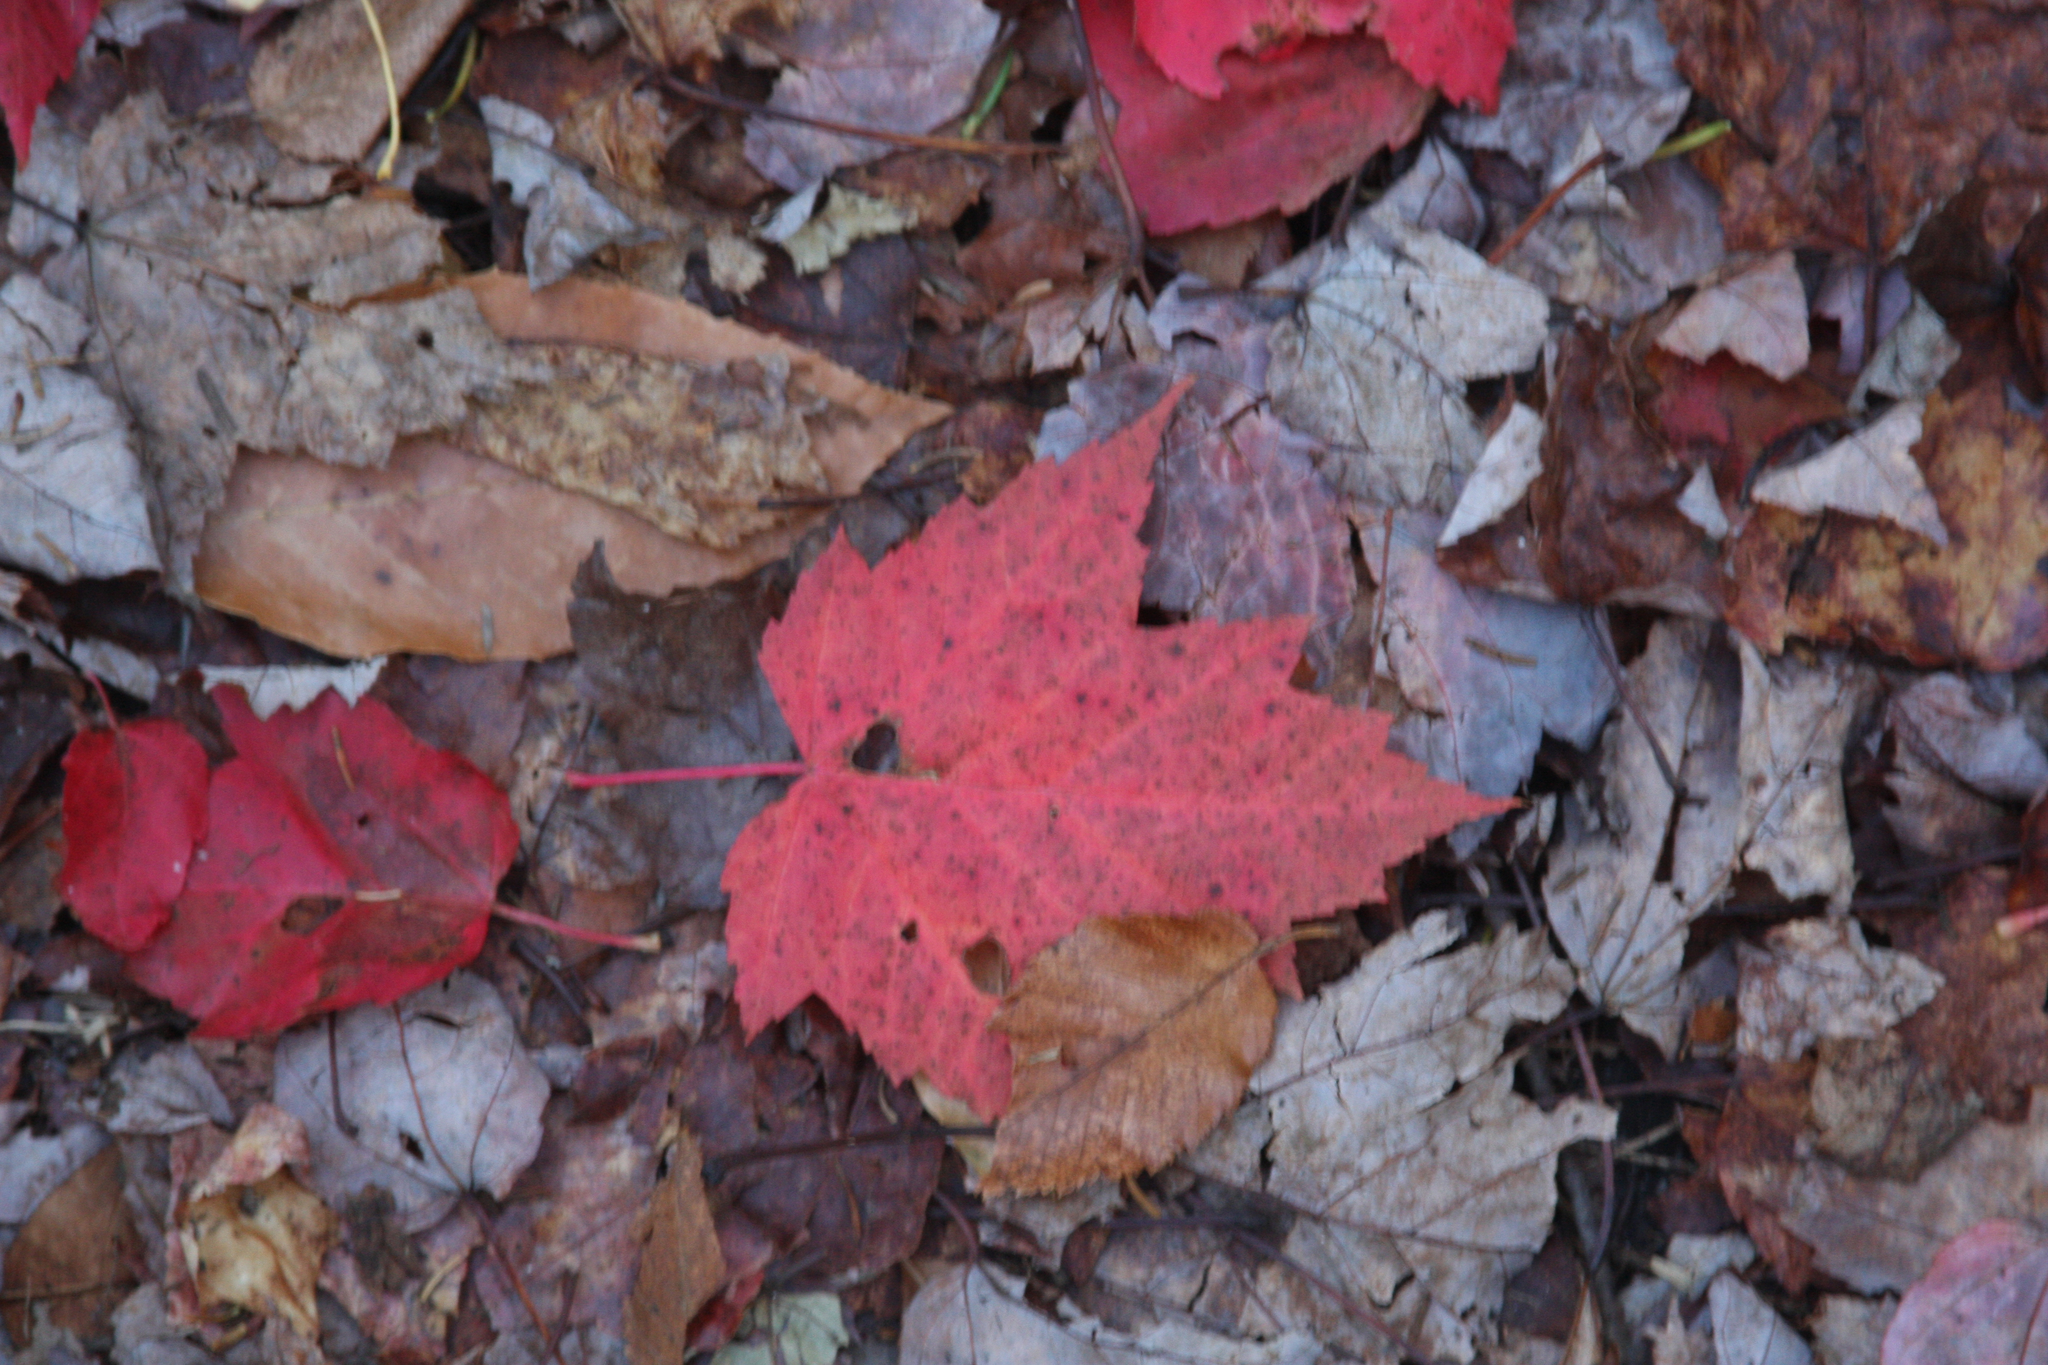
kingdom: Plantae
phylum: Tracheophyta
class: Magnoliopsida
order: Sapindales
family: Sapindaceae
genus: Acer
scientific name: Acer rubrum
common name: Red maple
